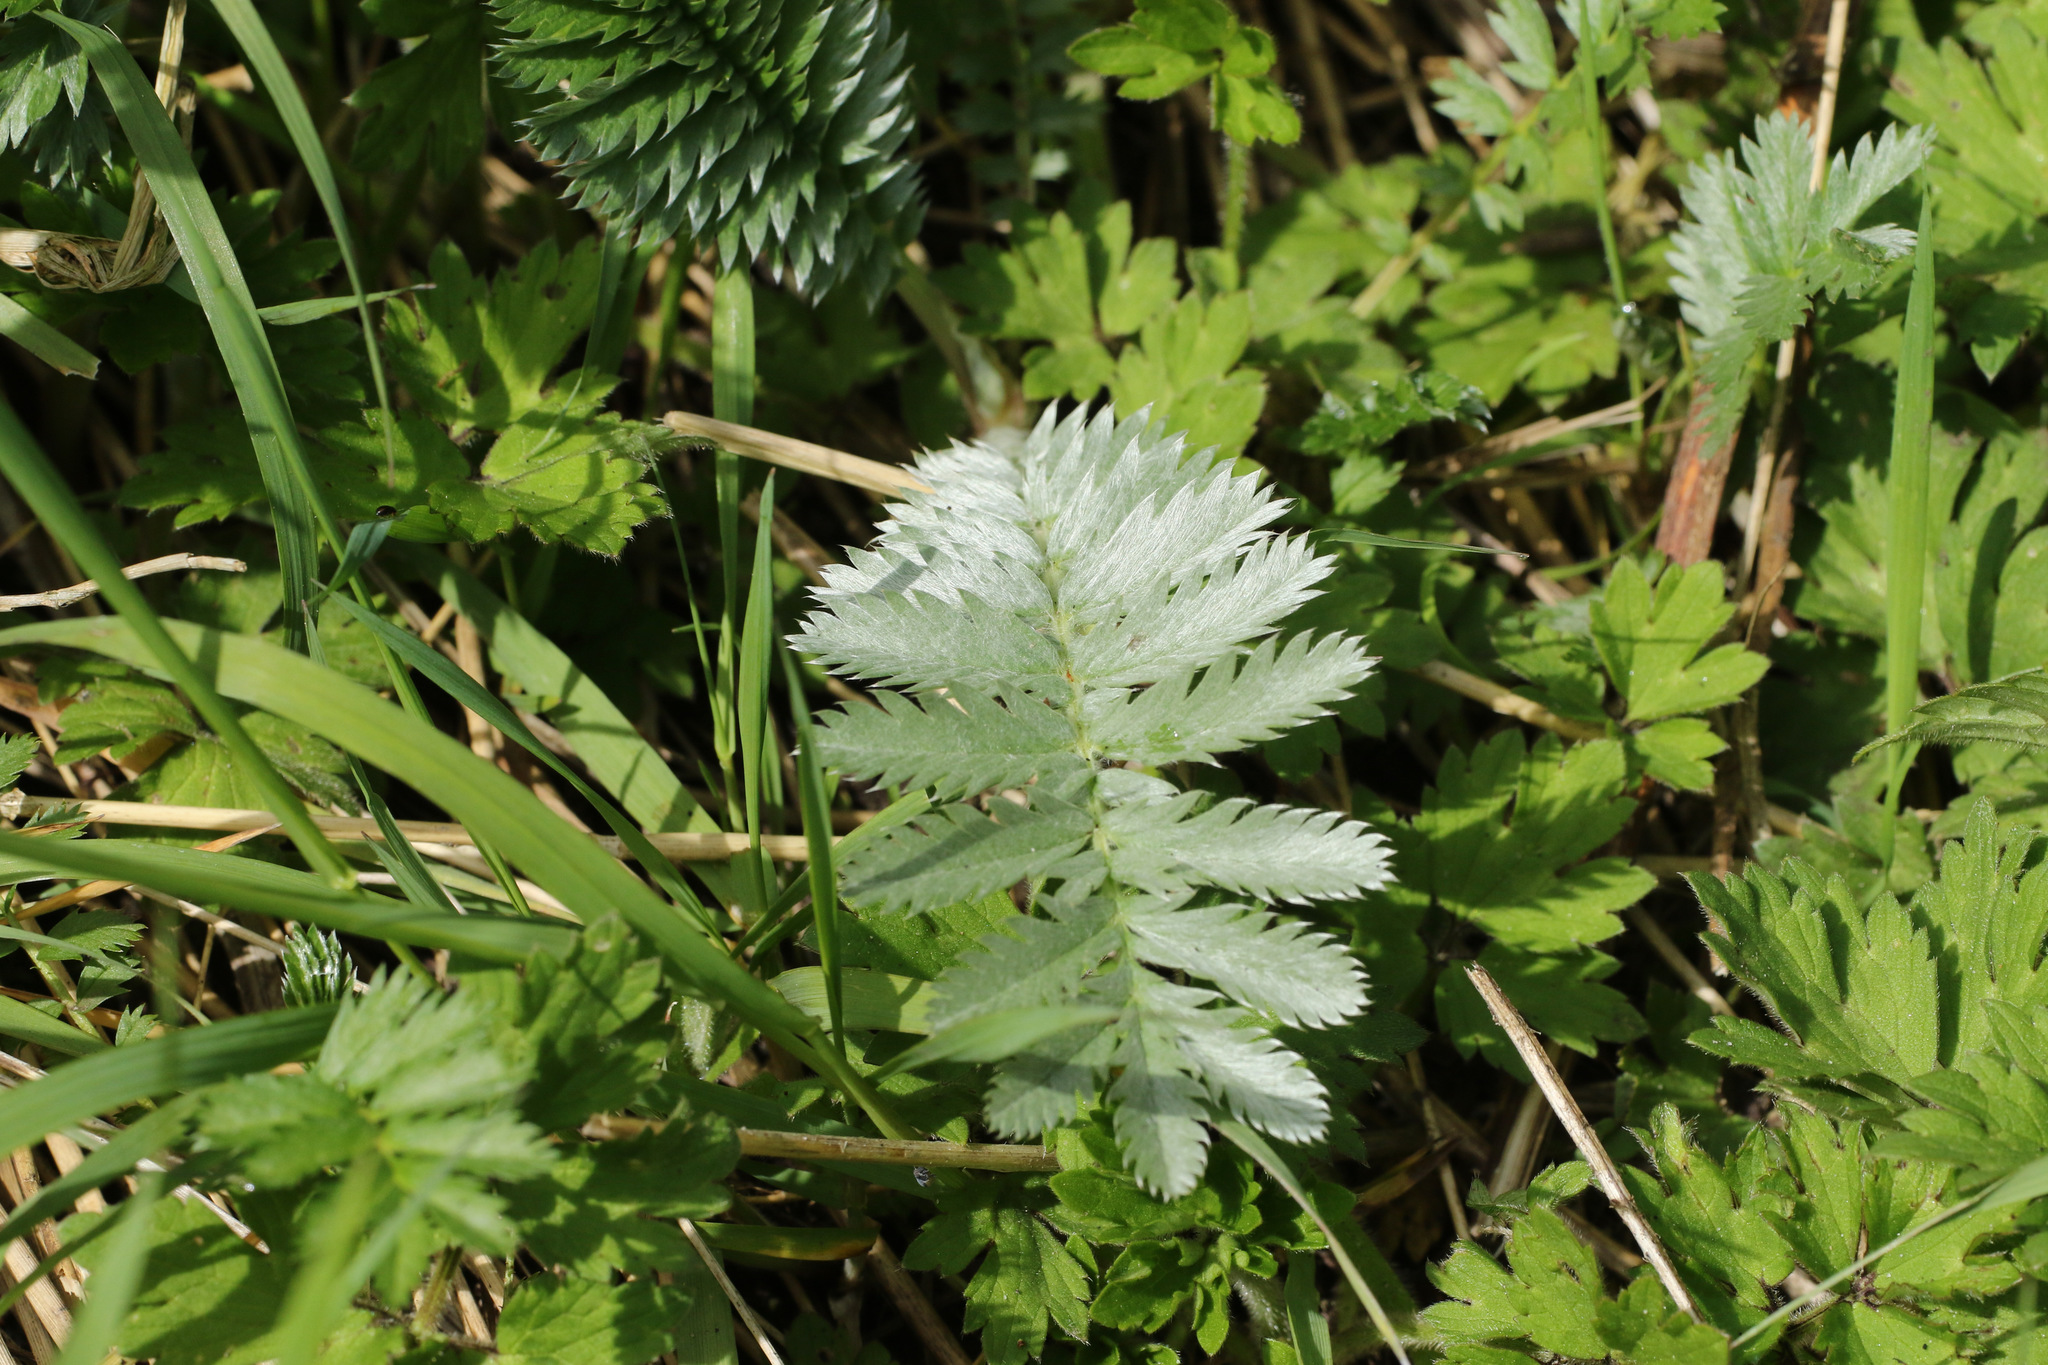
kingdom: Plantae
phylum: Tracheophyta
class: Magnoliopsida
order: Rosales
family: Rosaceae
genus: Argentina
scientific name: Argentina anserina
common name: Common silverweed
